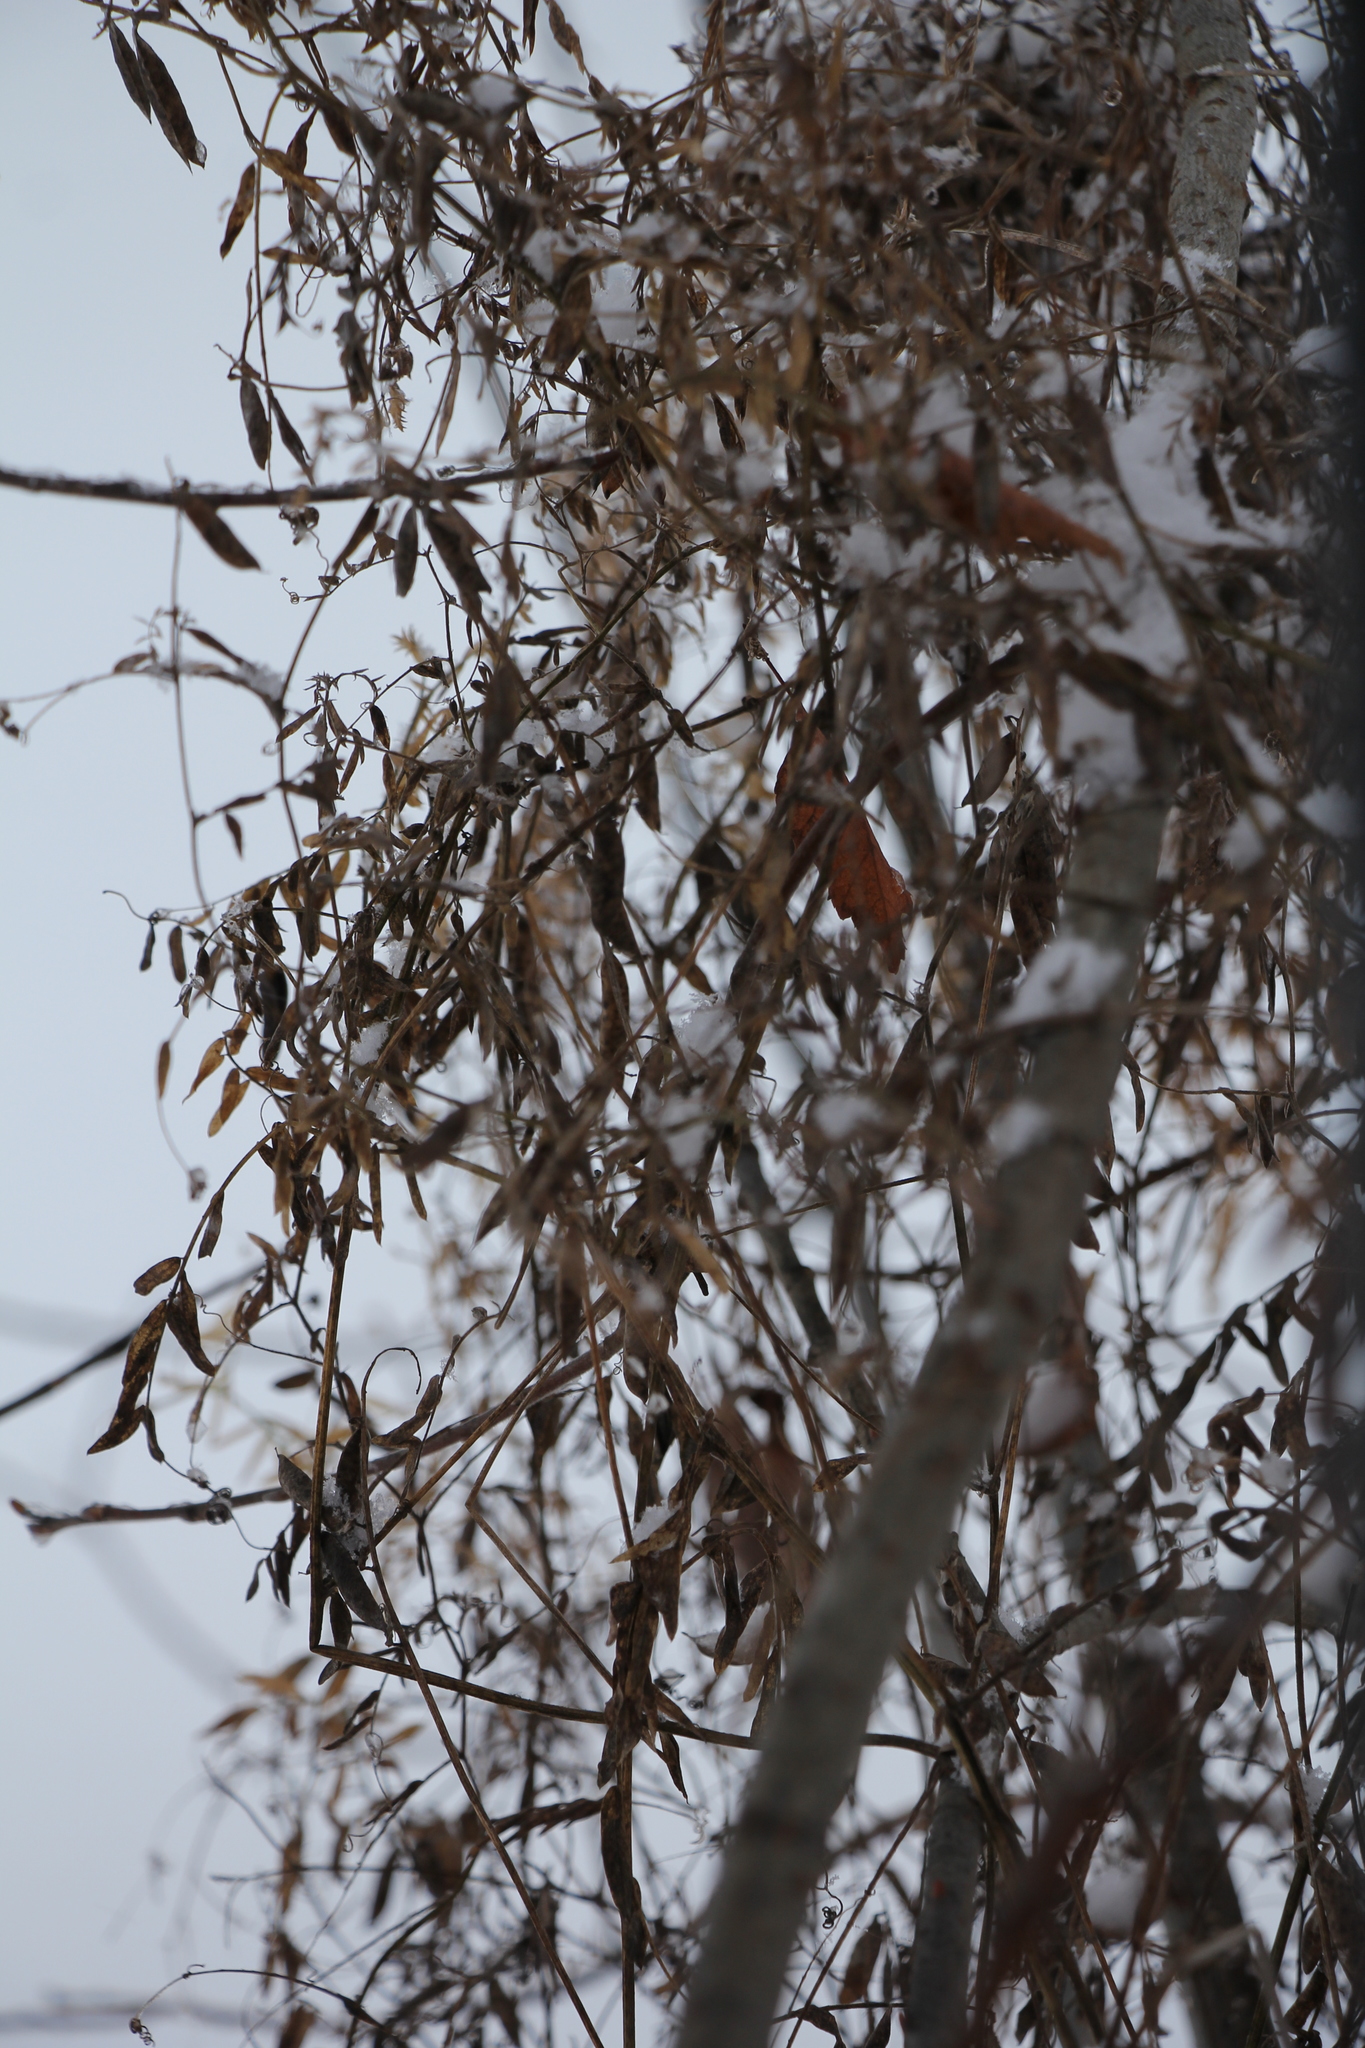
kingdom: Plantae
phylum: Tracheophyta
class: Magnoliopsida
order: Fabales
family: Fabaceae
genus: Vicia
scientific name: Vicia cracca
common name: Bird vetch
